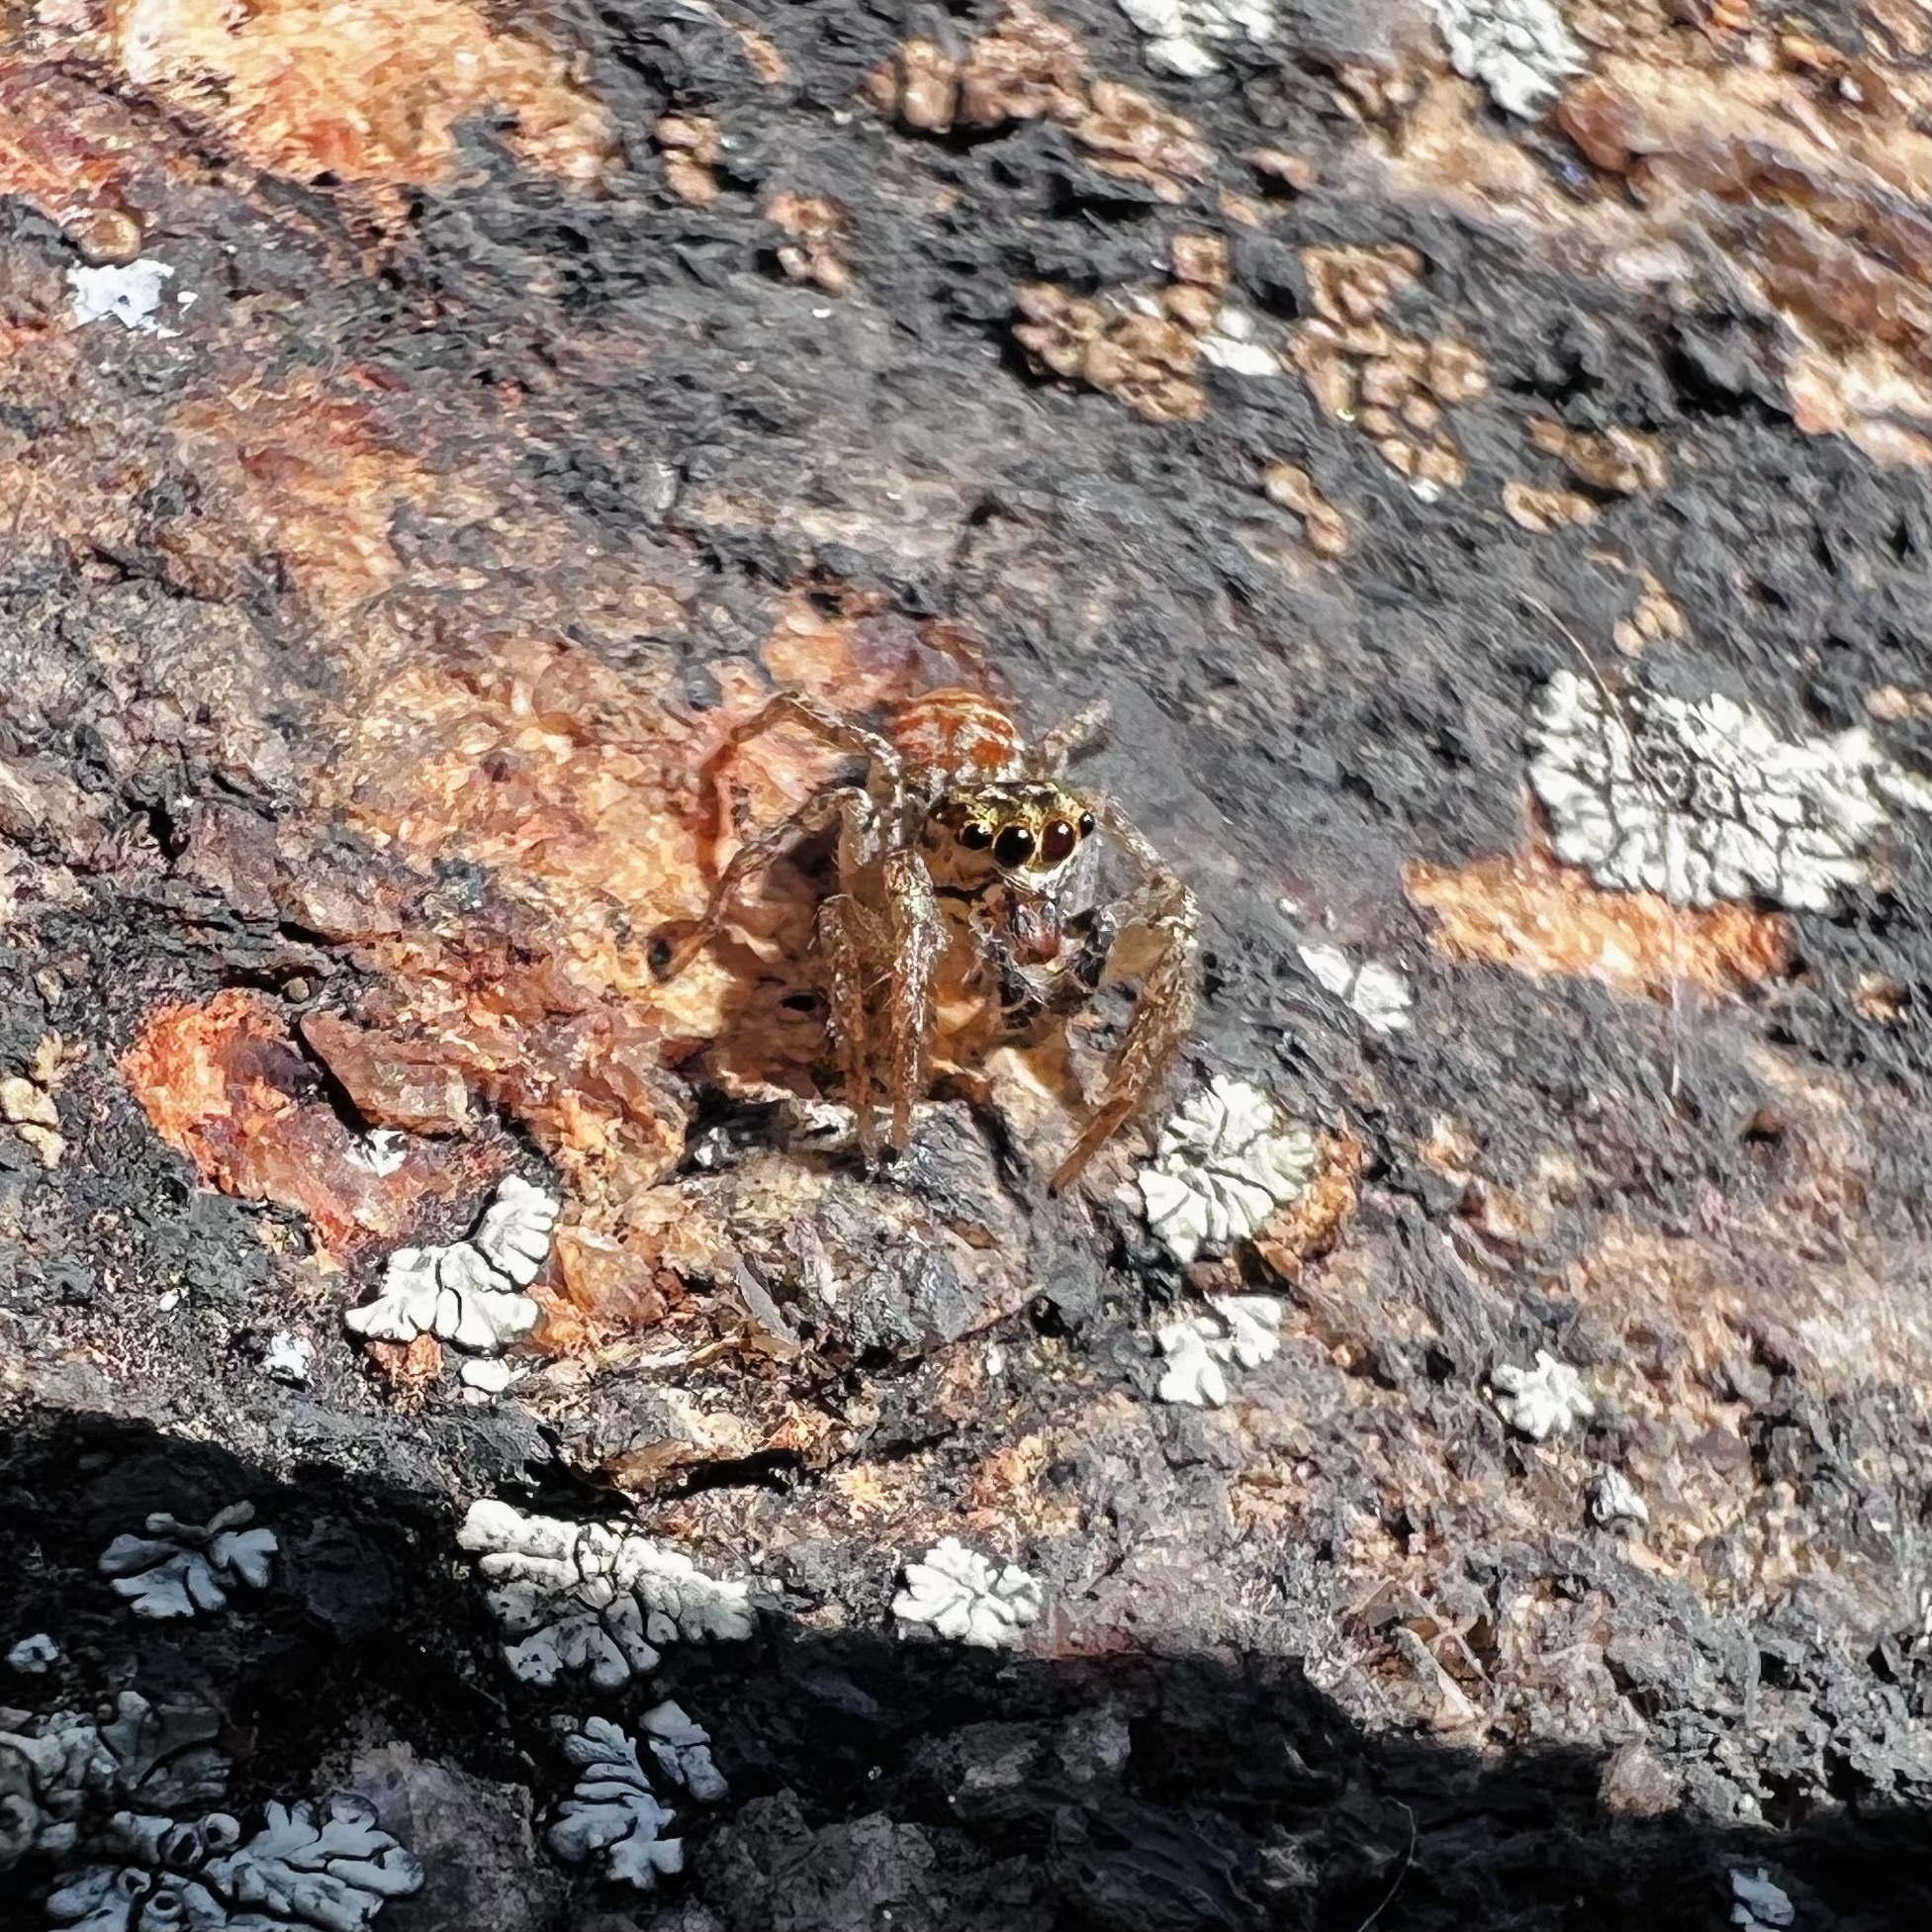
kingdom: Animalia
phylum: Arthropoda
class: Arachnida
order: Araneae
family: Salticidae
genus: Maevia
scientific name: Maevia inclemens
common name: Dimorphic jumper
